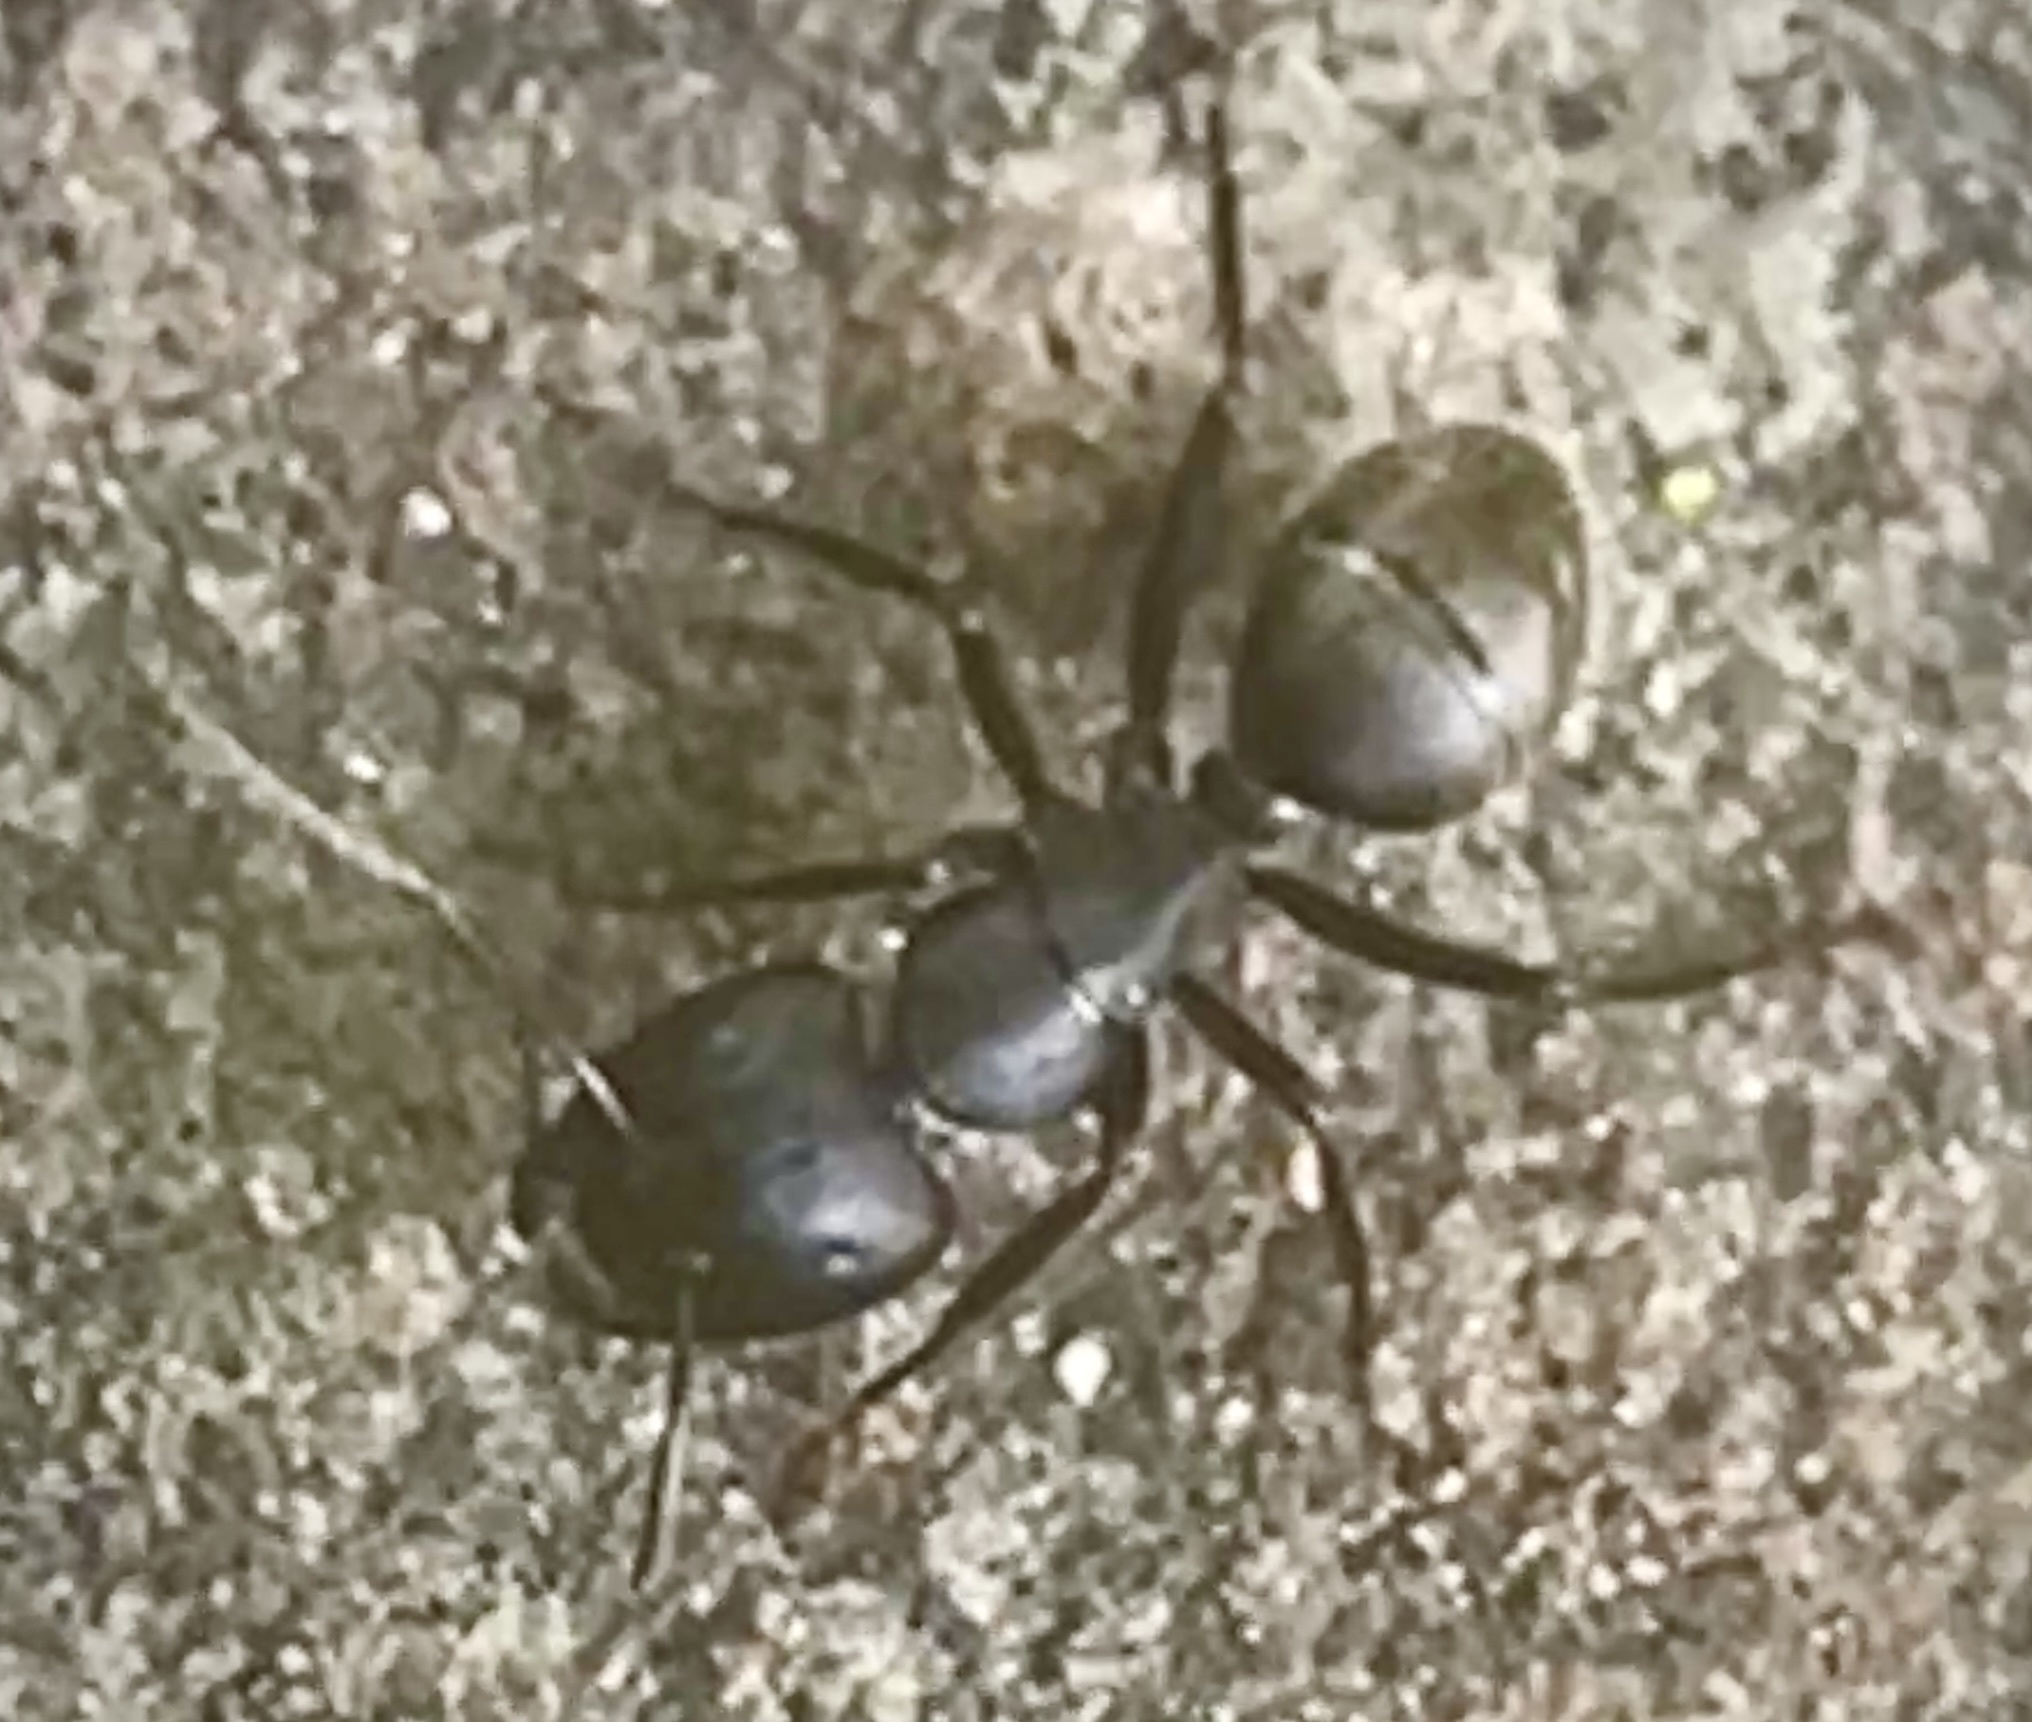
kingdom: Animalia
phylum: Arthropoda
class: Insecta
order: Hymenoptera
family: Formicidae
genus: Camponotus
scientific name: Camponotus pennsylvanicus
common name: Black carpenter ant
